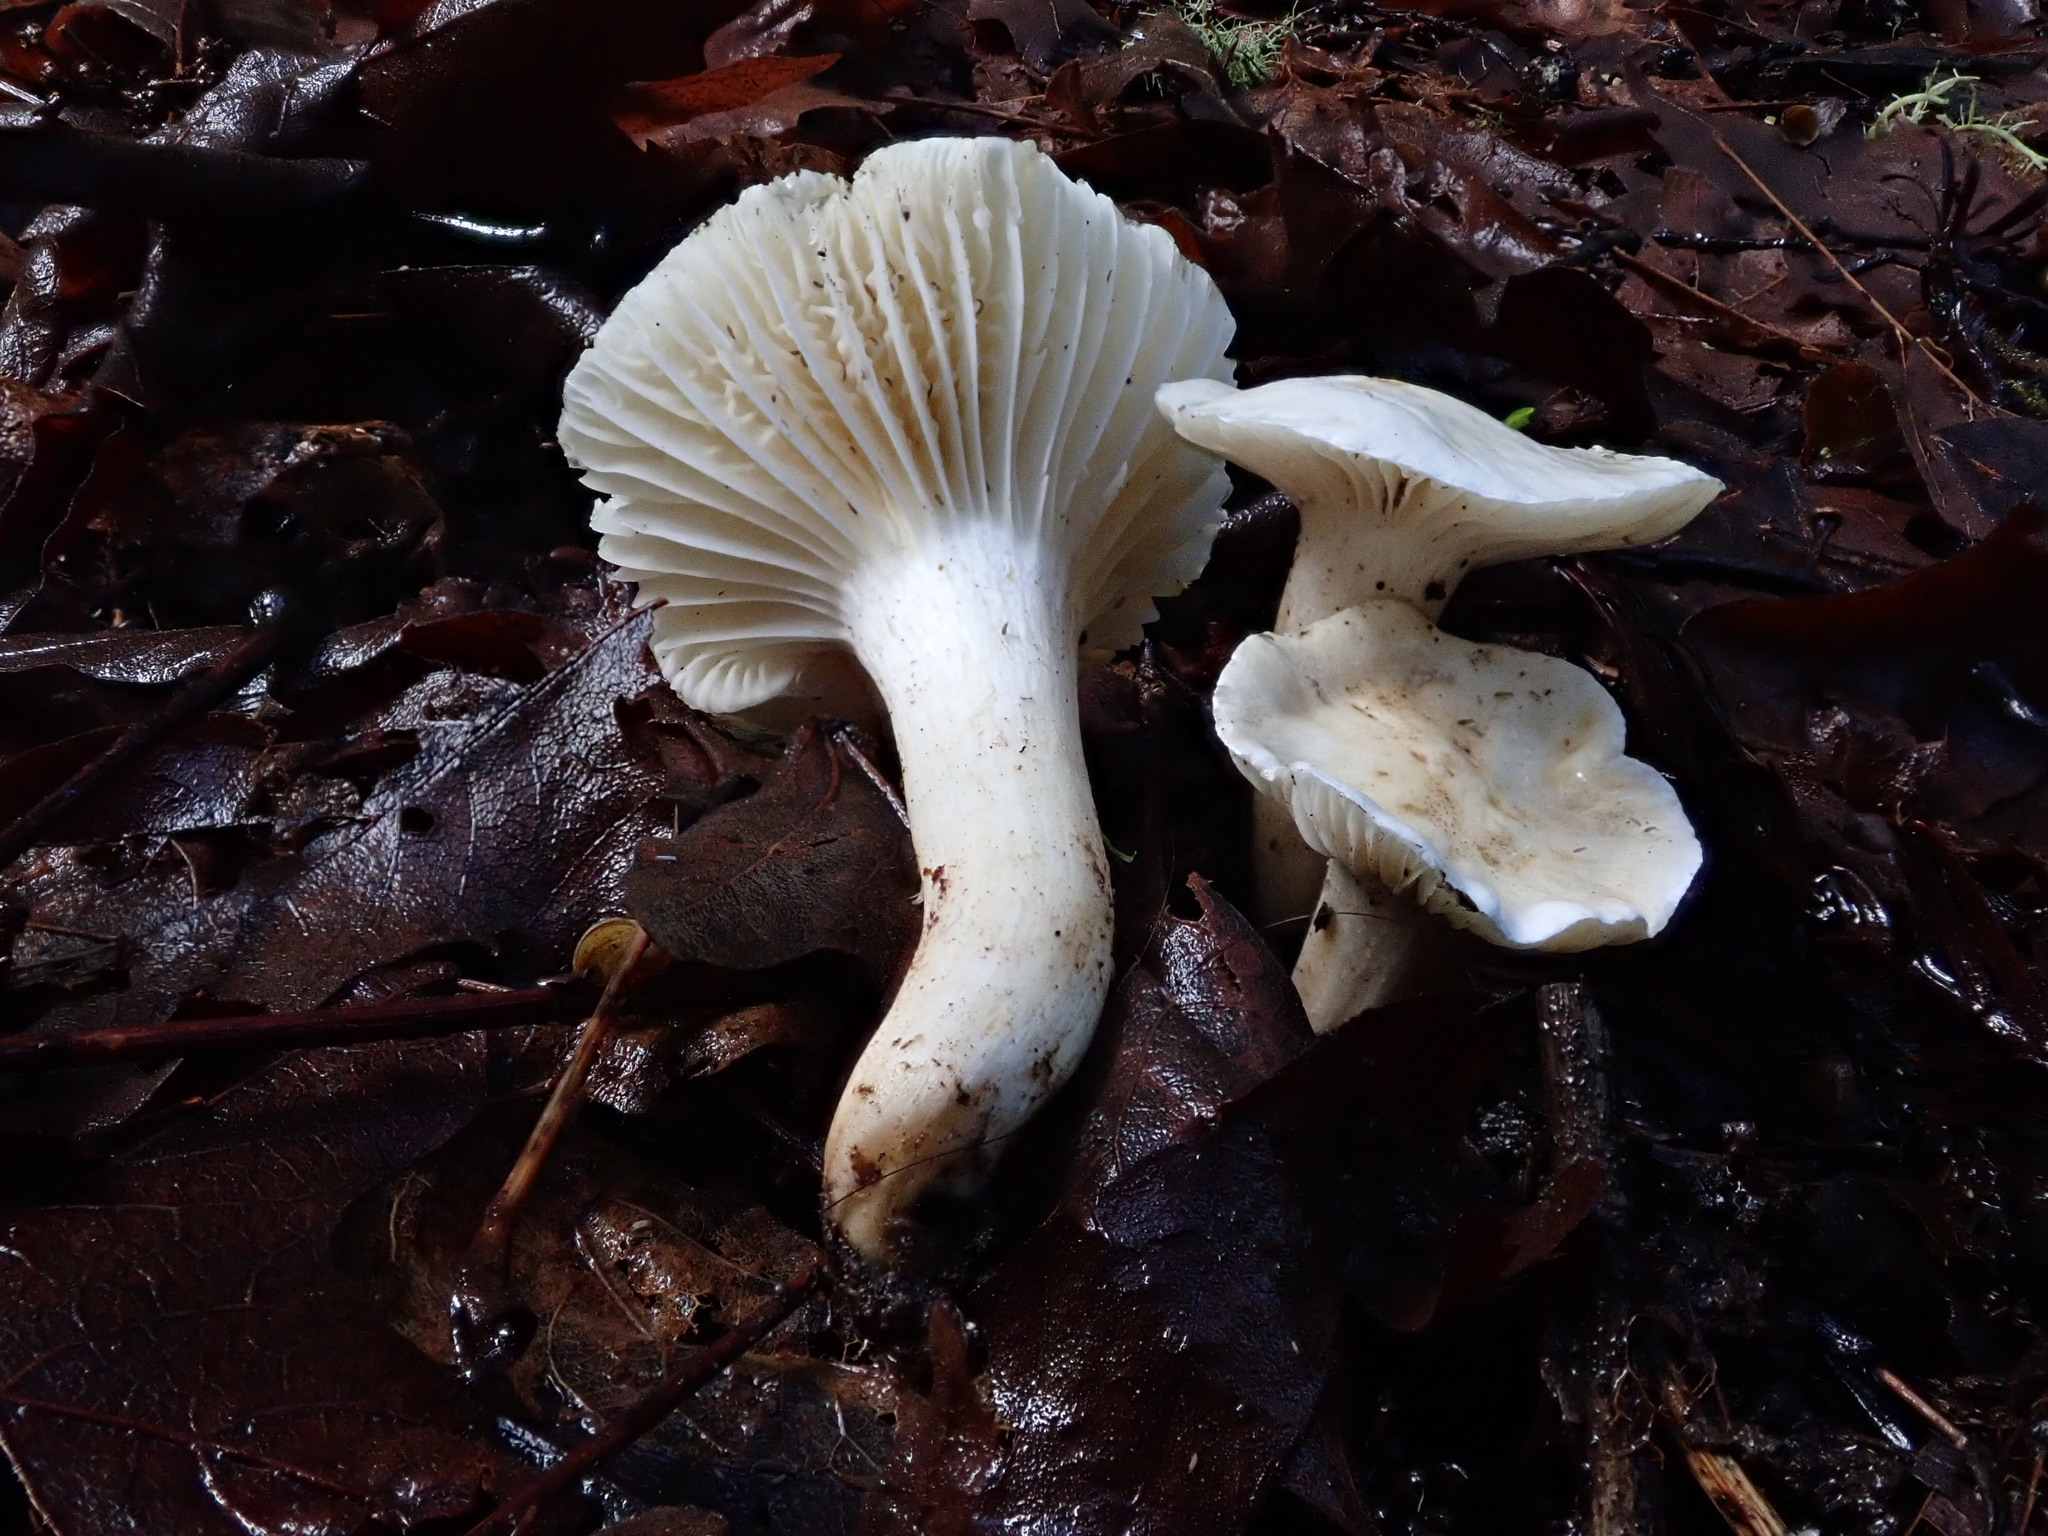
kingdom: Fungi
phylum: Basidiomycota
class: Agaricomycetes
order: Agaricales
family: Hygrophoraceae
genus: Cuphophyllus
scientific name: Cuphophyllus virgineus
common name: Snowy waxcap
